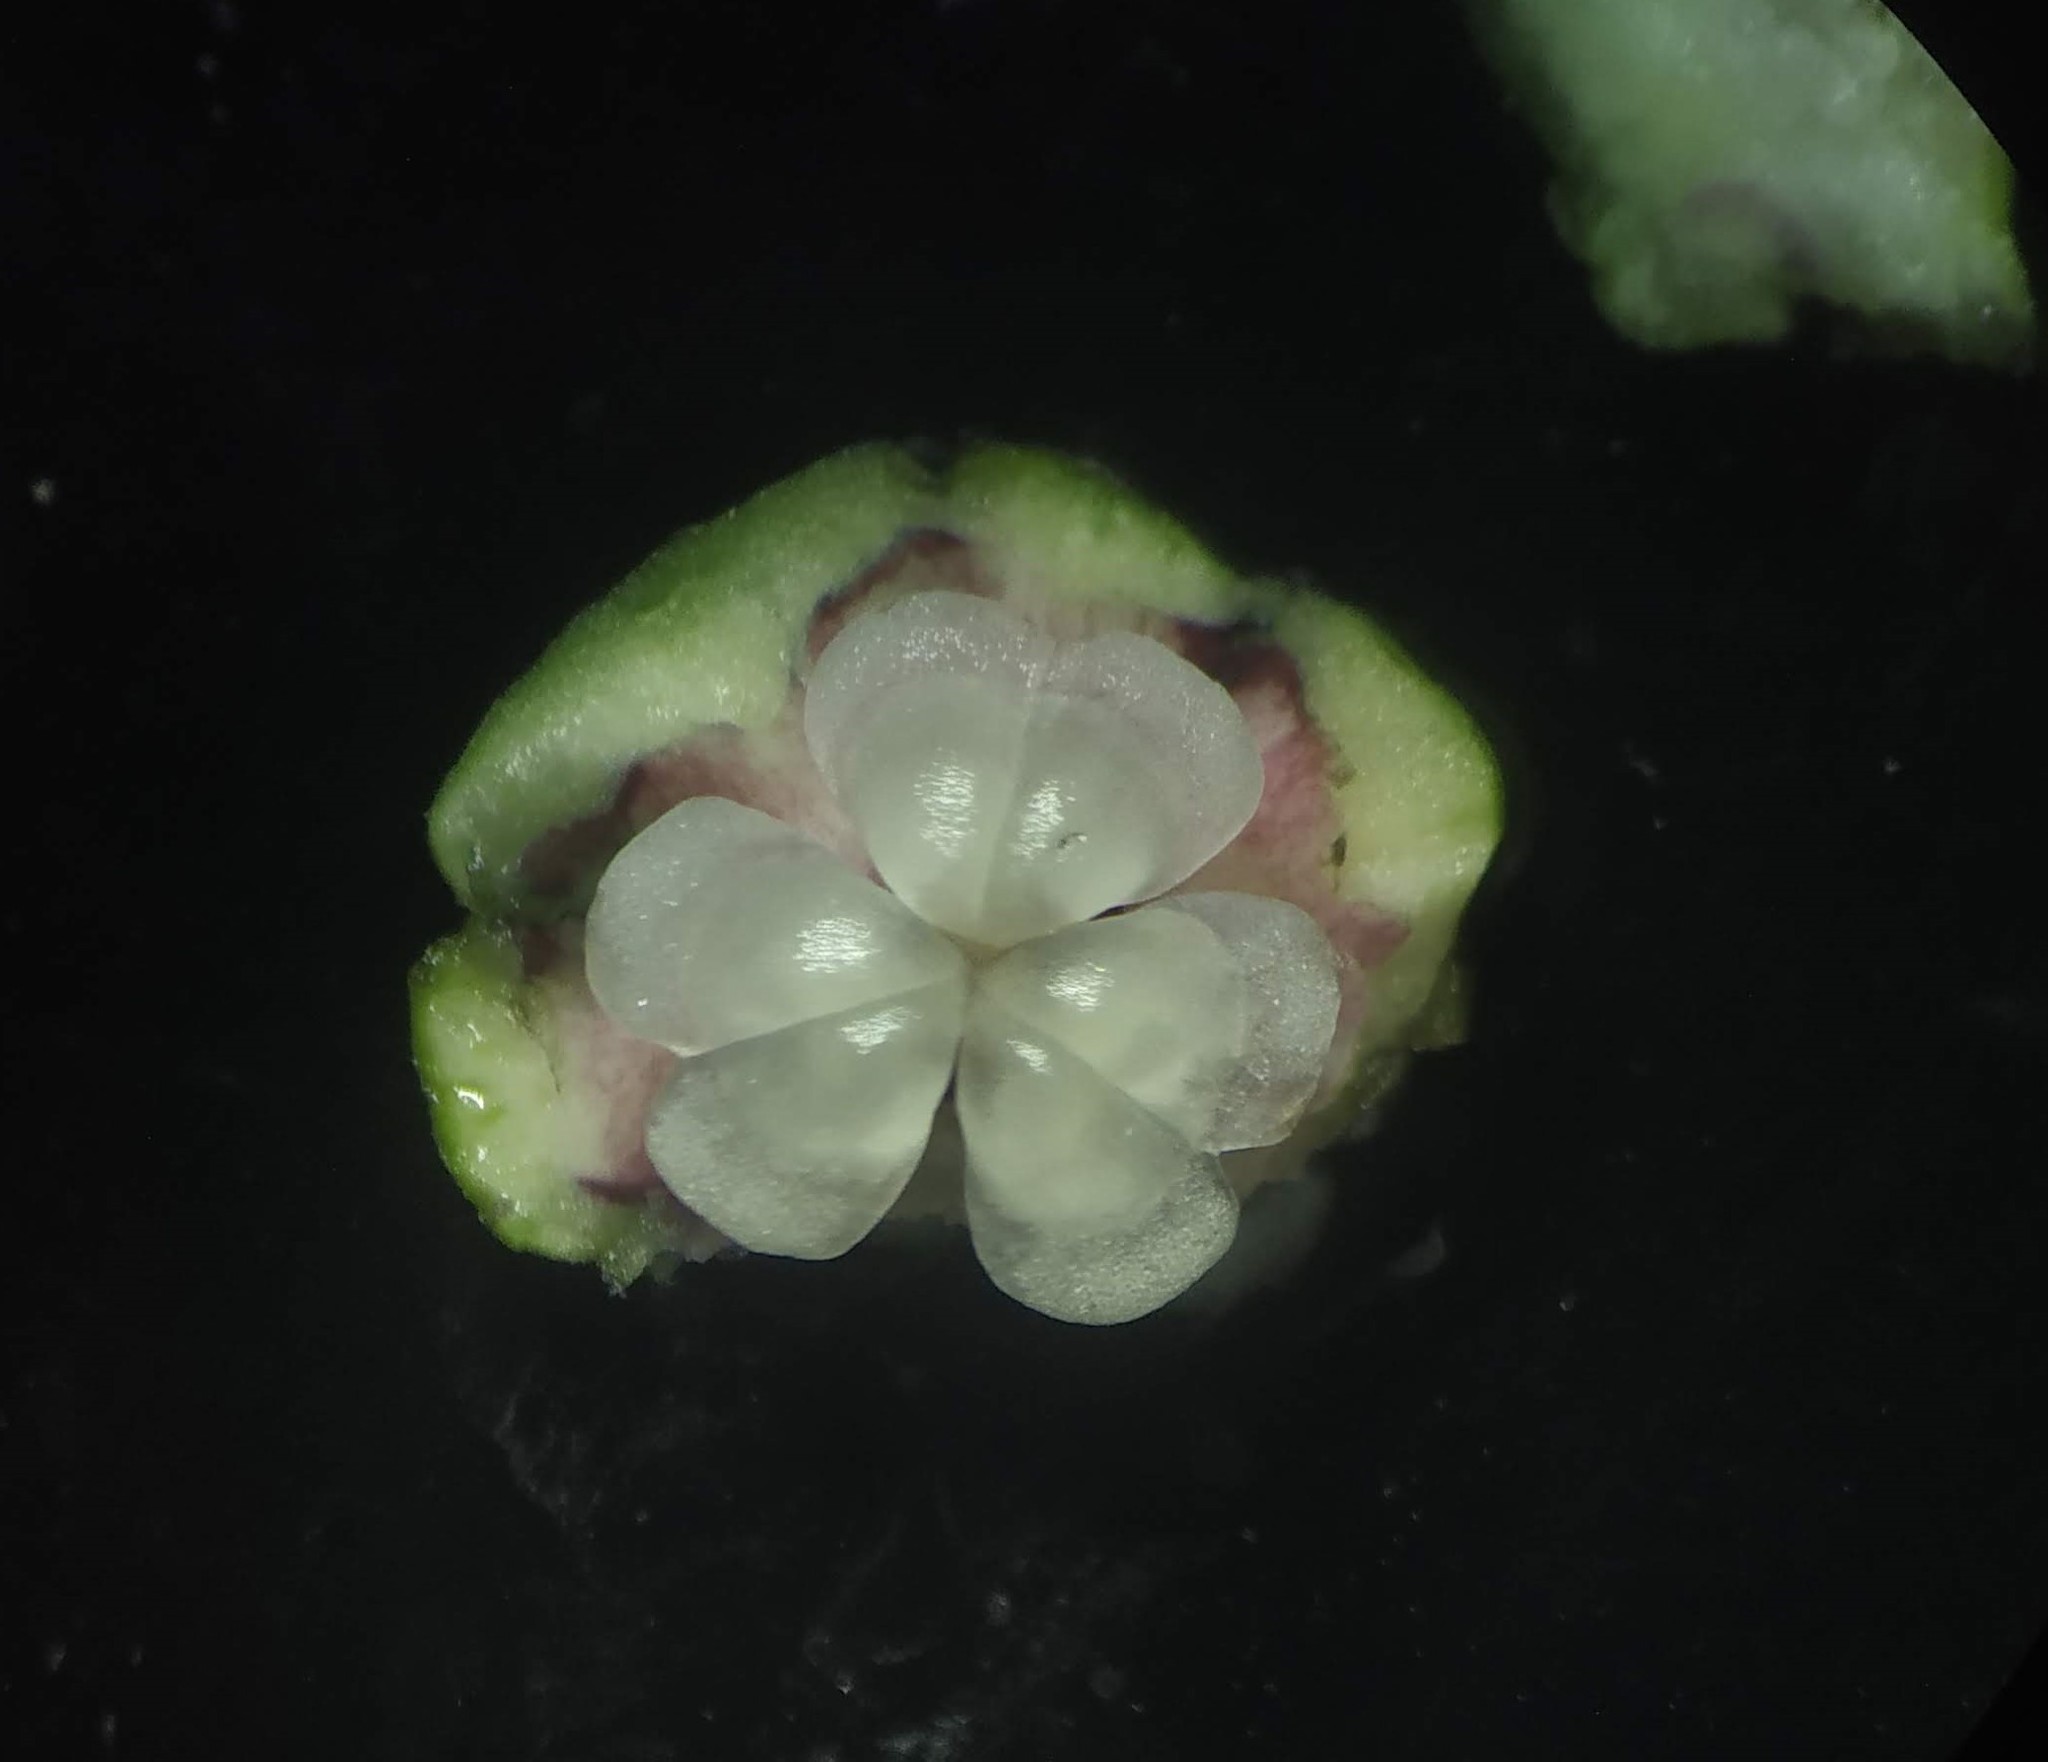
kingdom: Plantae
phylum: Tracheophyta
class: Liliopsida
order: Dioscoreales
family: Dioscoreaceae
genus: Tacca
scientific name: Tacca leontopetaloides
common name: Arrowroot
